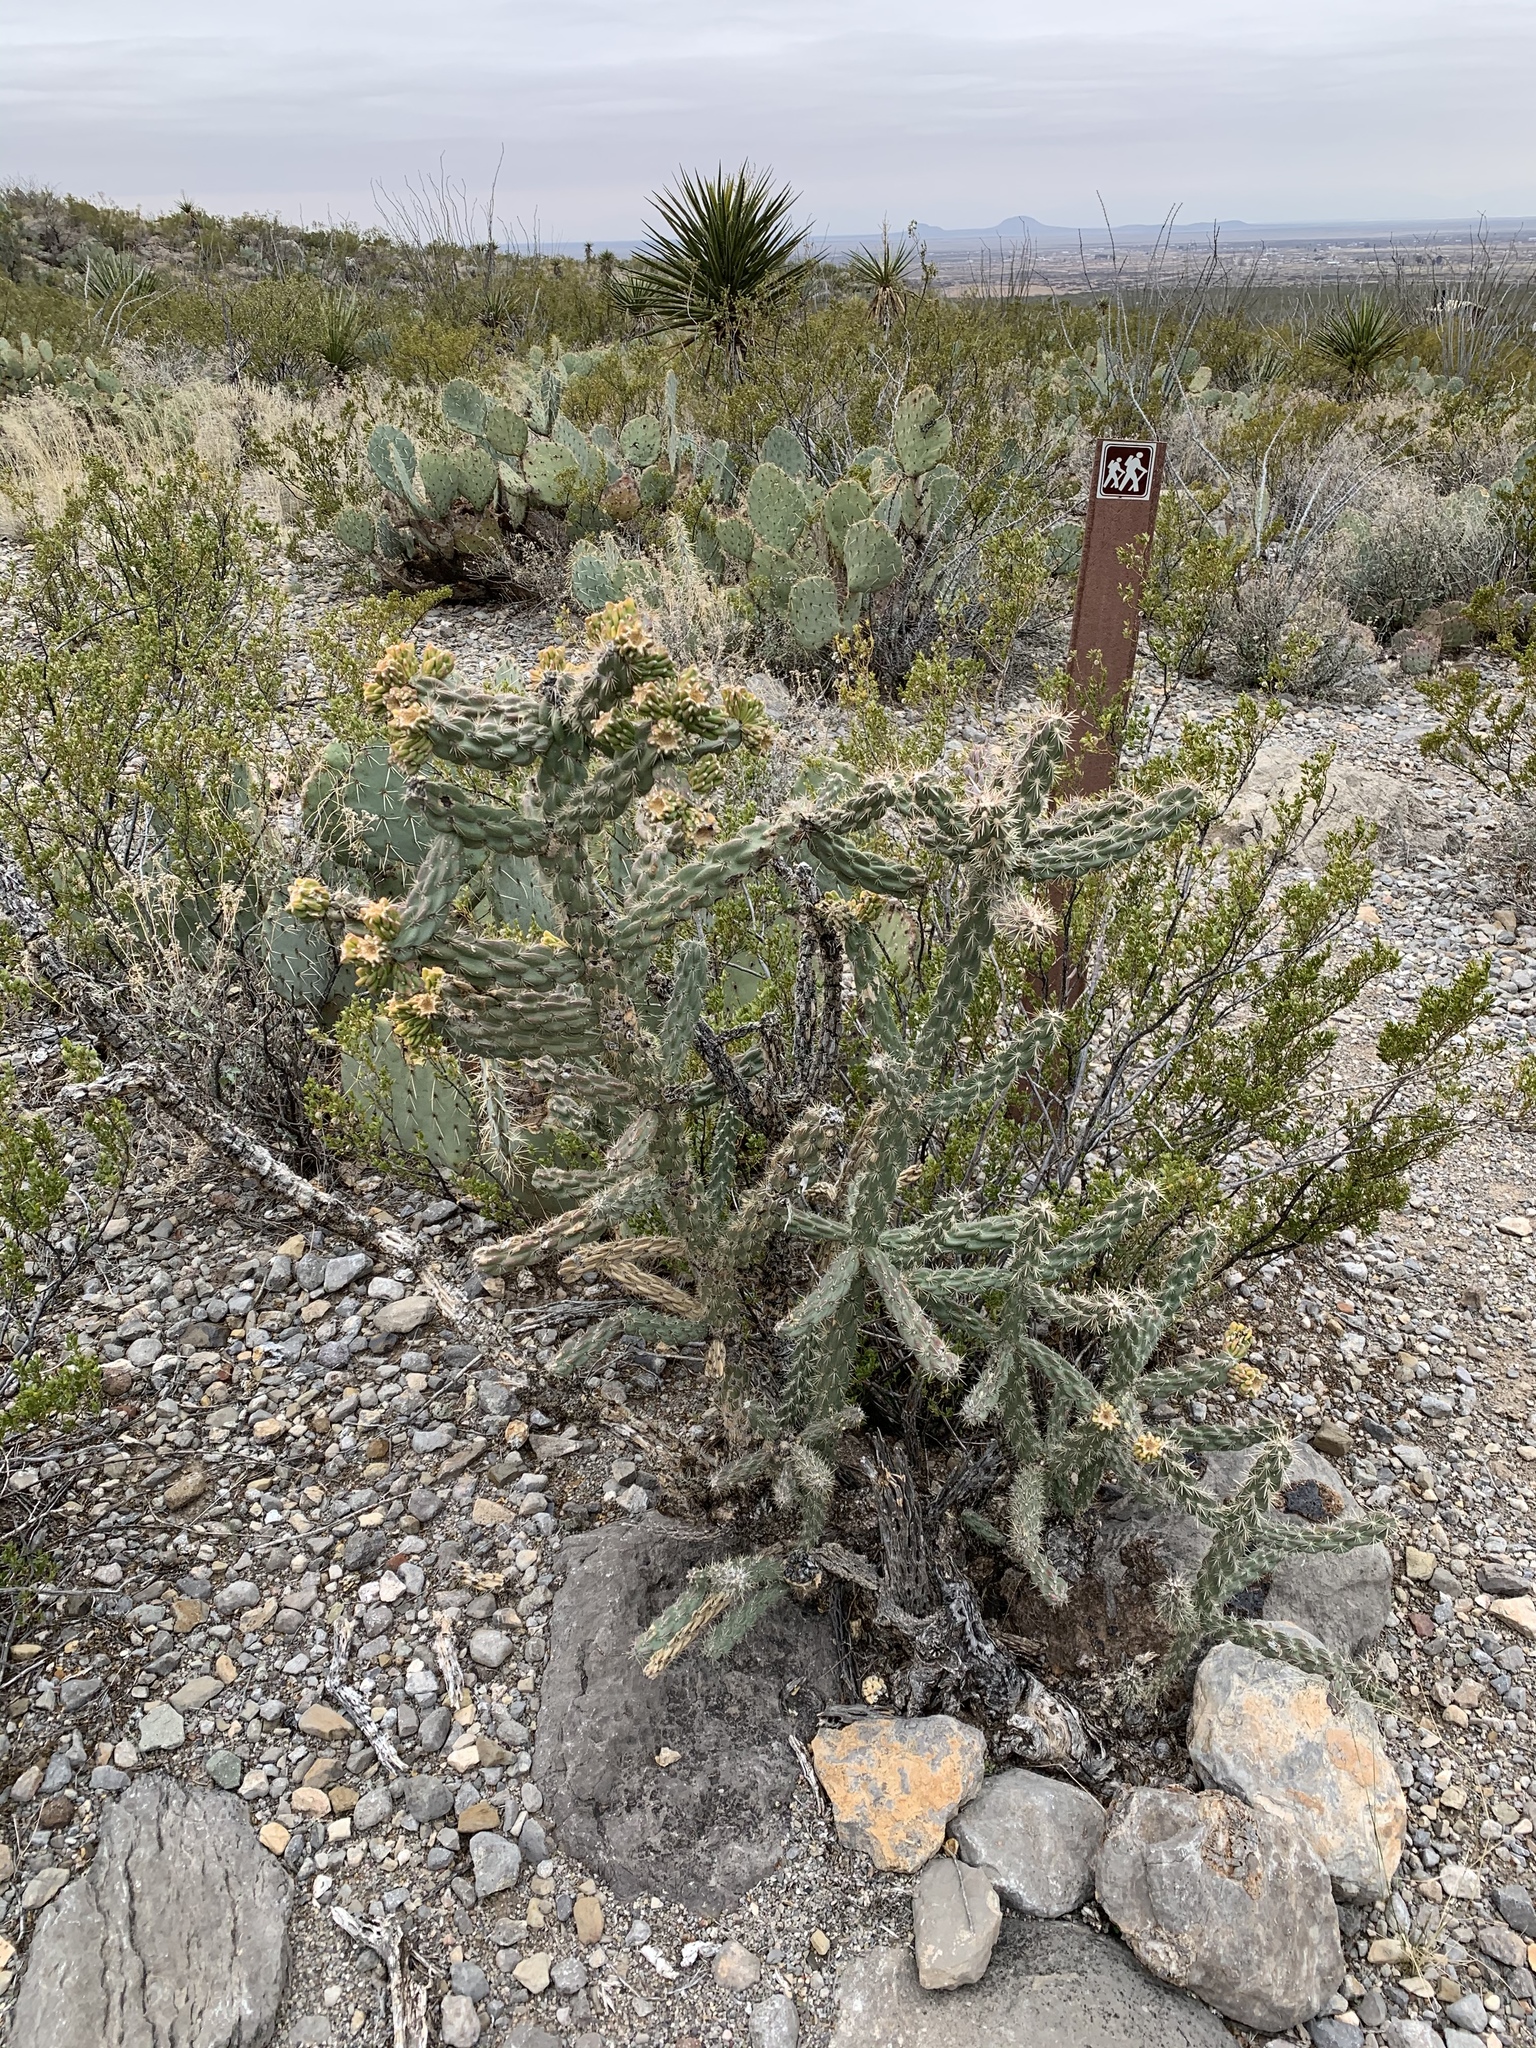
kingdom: Plantae
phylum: Tracheophyta
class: Magnoliopsida
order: Caryophyllales
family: Cactaceae
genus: Cylindropuntia
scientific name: Cylindropuntia imbricata
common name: Candelabrum cactus
